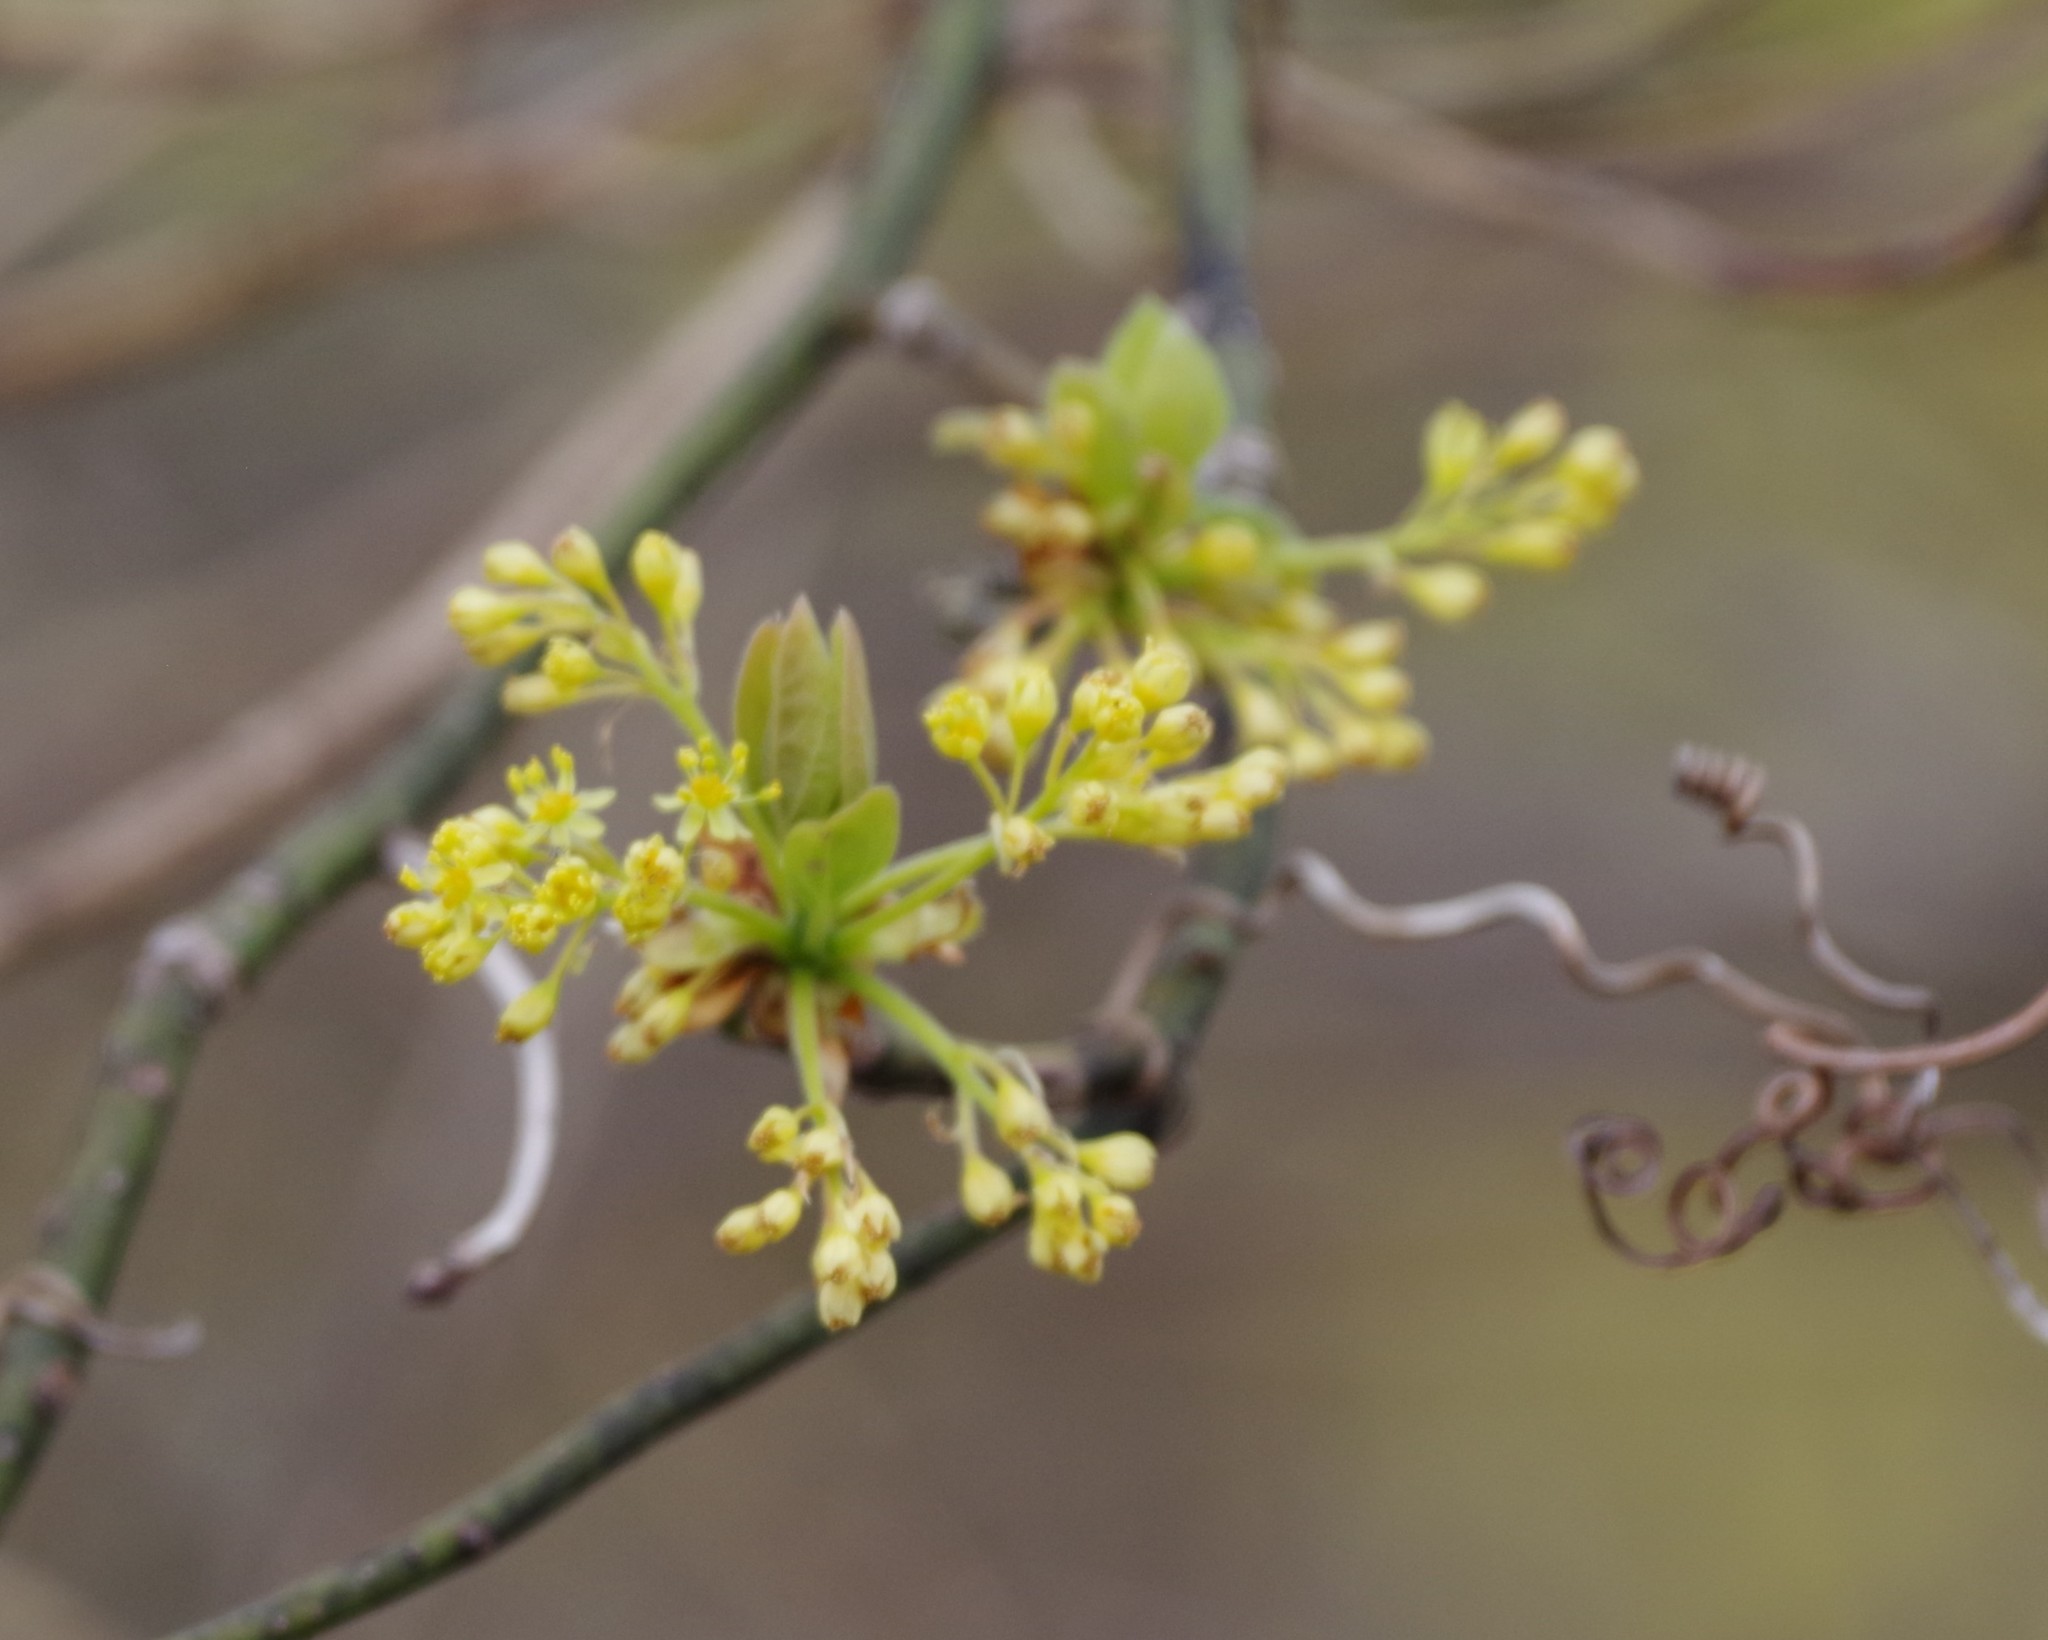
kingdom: Plantae
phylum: Tracheophyta
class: Magnoliopsida
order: Laurales
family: Lauraceae
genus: Sassafras
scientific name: Sassafras albidum
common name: Sassafras
